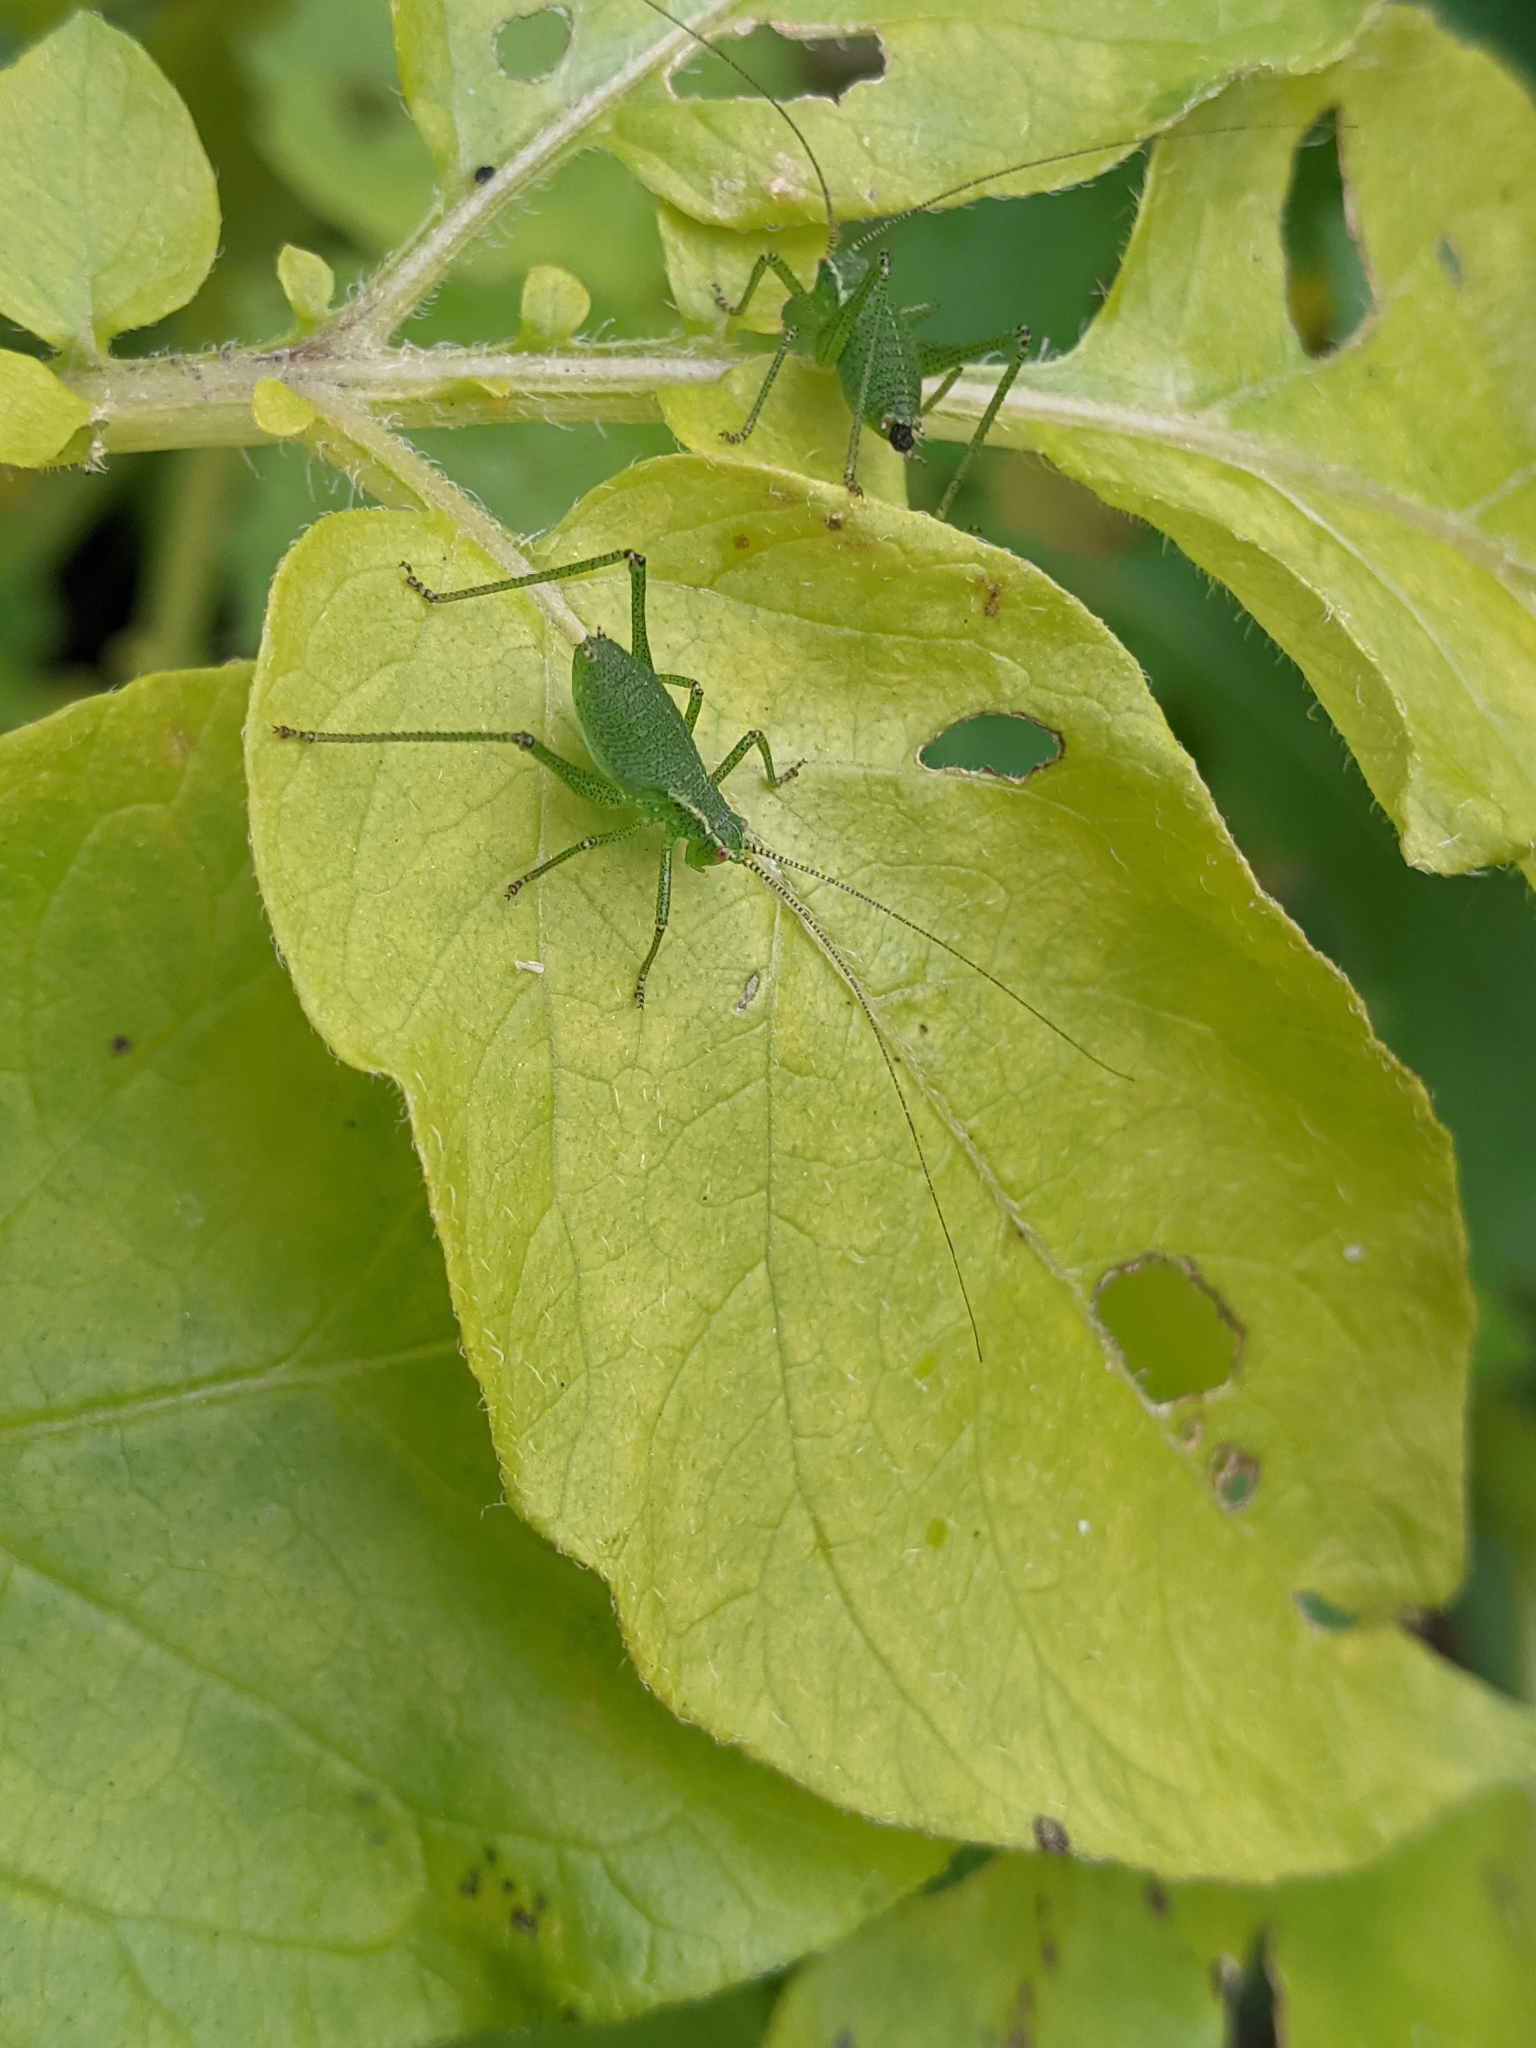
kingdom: Animalia
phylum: Arthropoda
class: Insecta
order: Orthoptera
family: Tettigoniidae
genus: Leptophyes
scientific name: Leptophyes punctatissima
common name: Speckled bush-cricket
